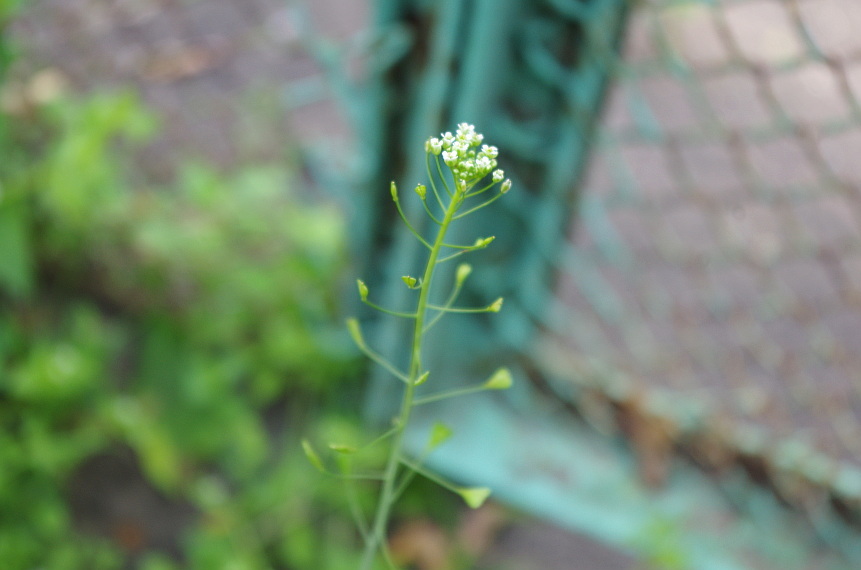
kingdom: Plantae
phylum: Tracheophyta
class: Magnoliopsida
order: Brassicales
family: Brassicaceae
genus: Capsella
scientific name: Capsella bursa-pastoris
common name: Shepherd's purse
